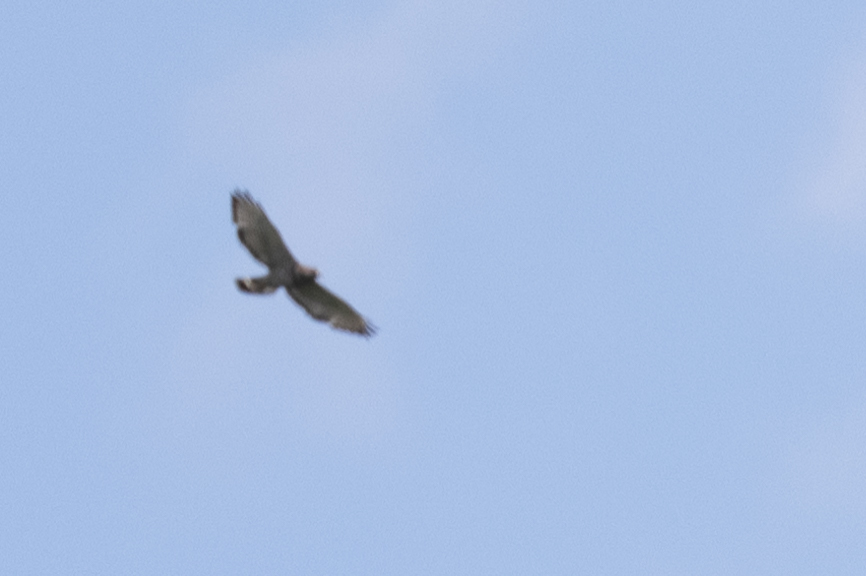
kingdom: Animalia
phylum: Chordata
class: Aves
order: Accipitriformes
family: Accipitridae
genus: Buteo
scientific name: Buteo platypterus
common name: Broad-winged hawk
